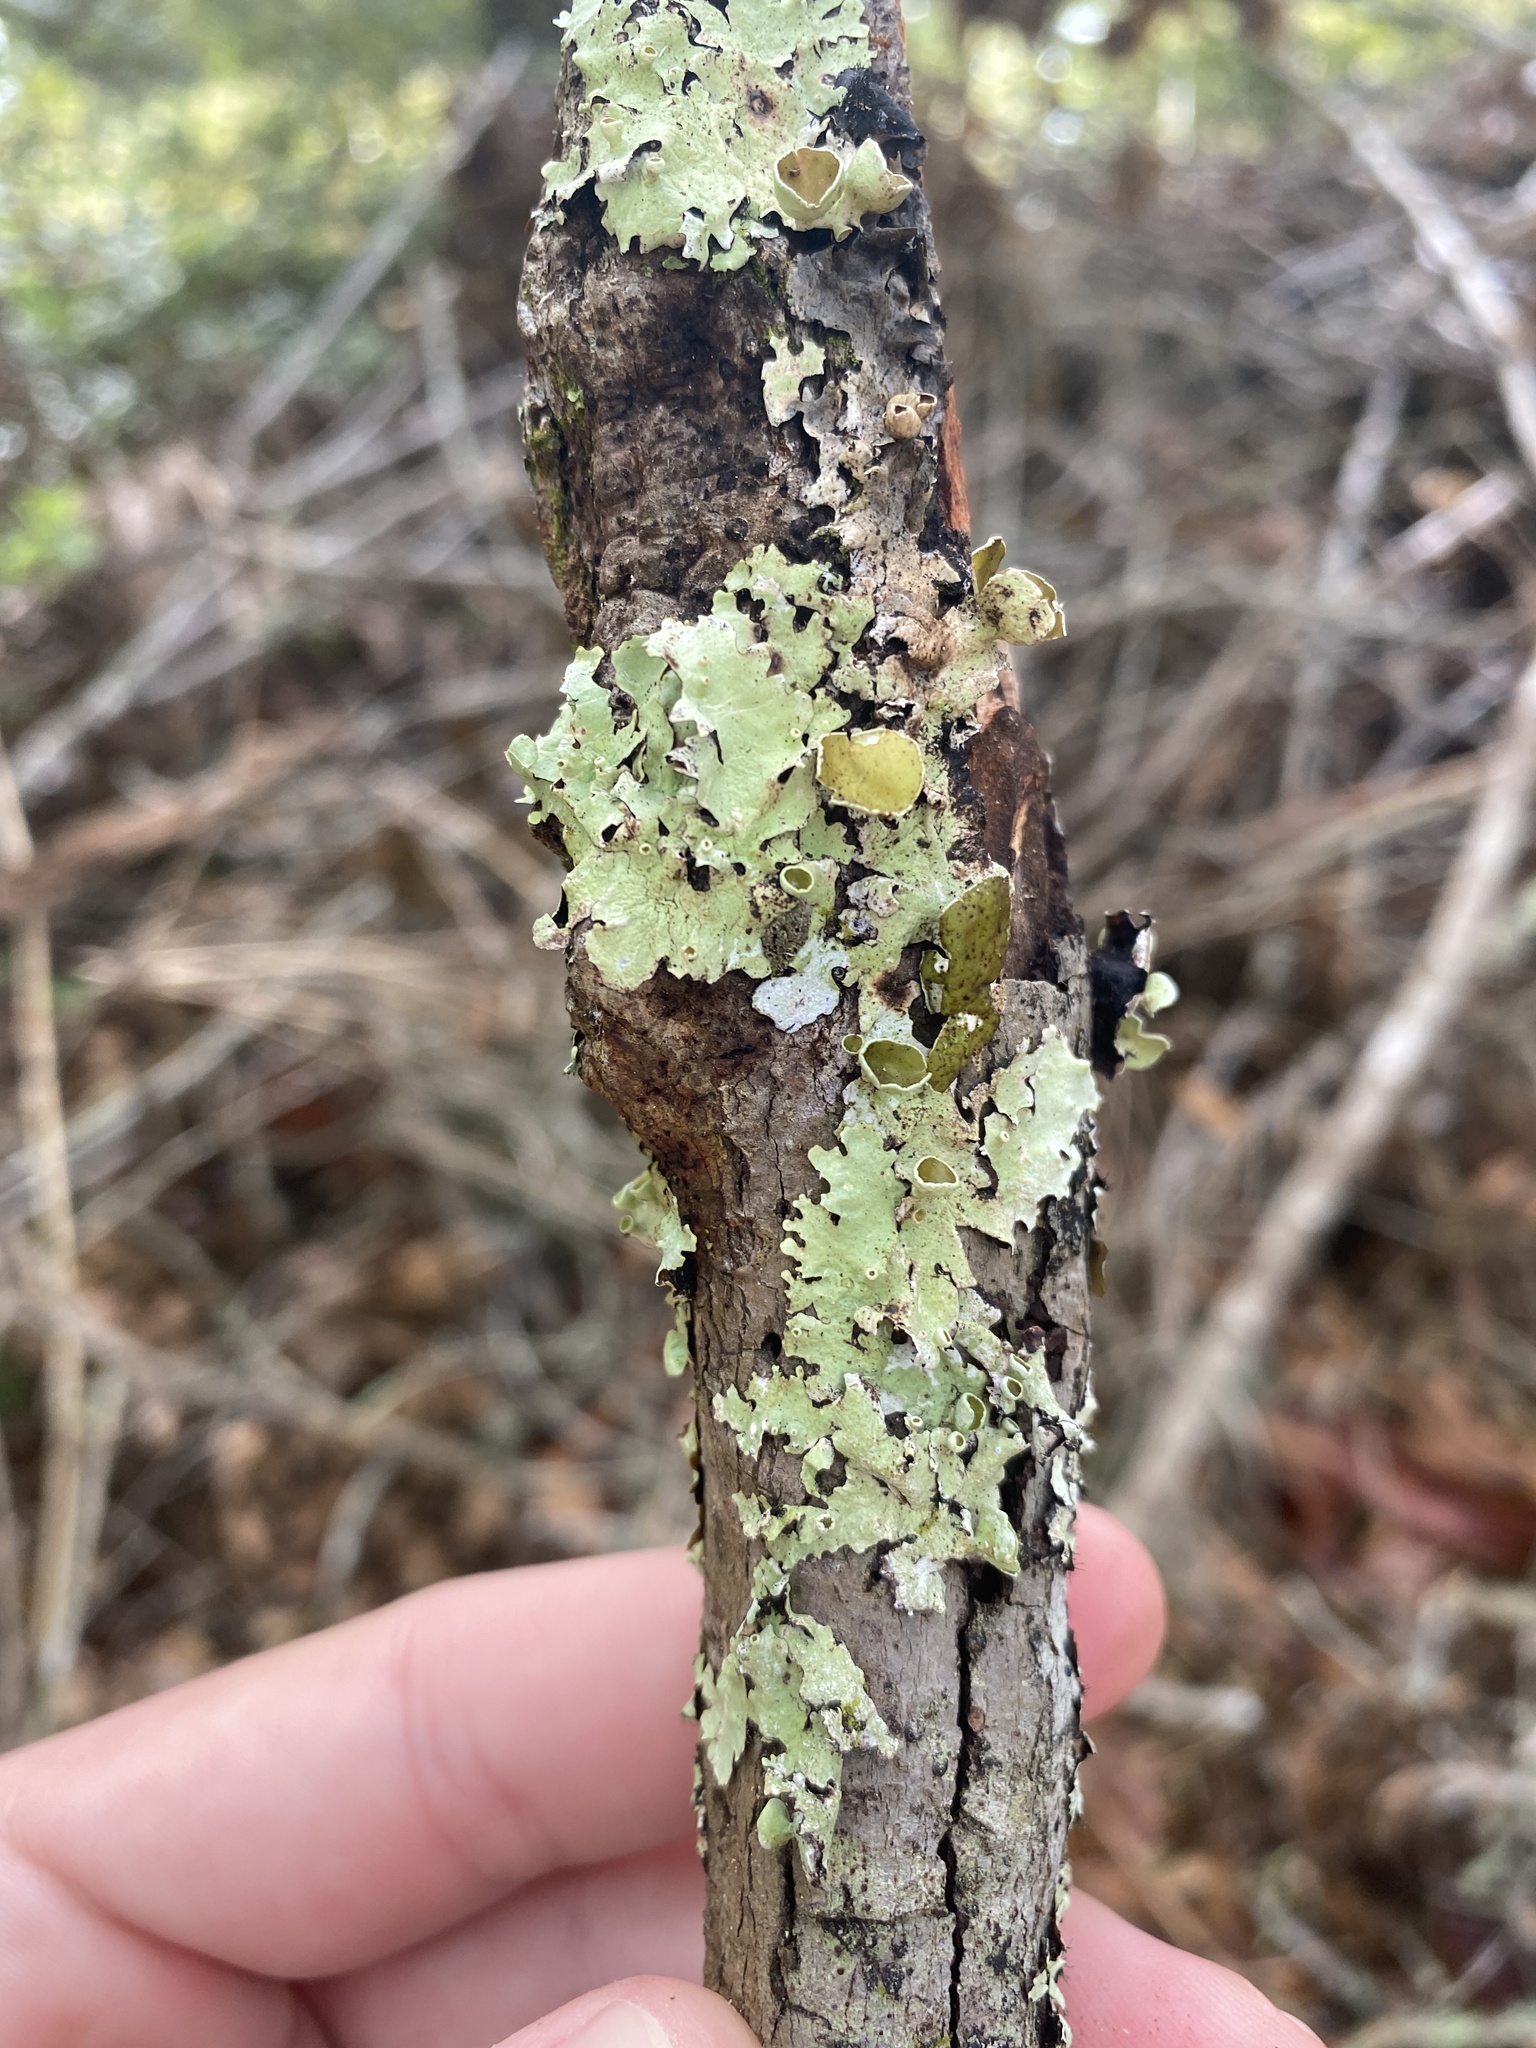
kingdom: Fungi
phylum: Ascomycota
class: Lecanoromycetes
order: Lecanorales
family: Parmeliaceae
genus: Parmotrema
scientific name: Parmotrema submarginale
